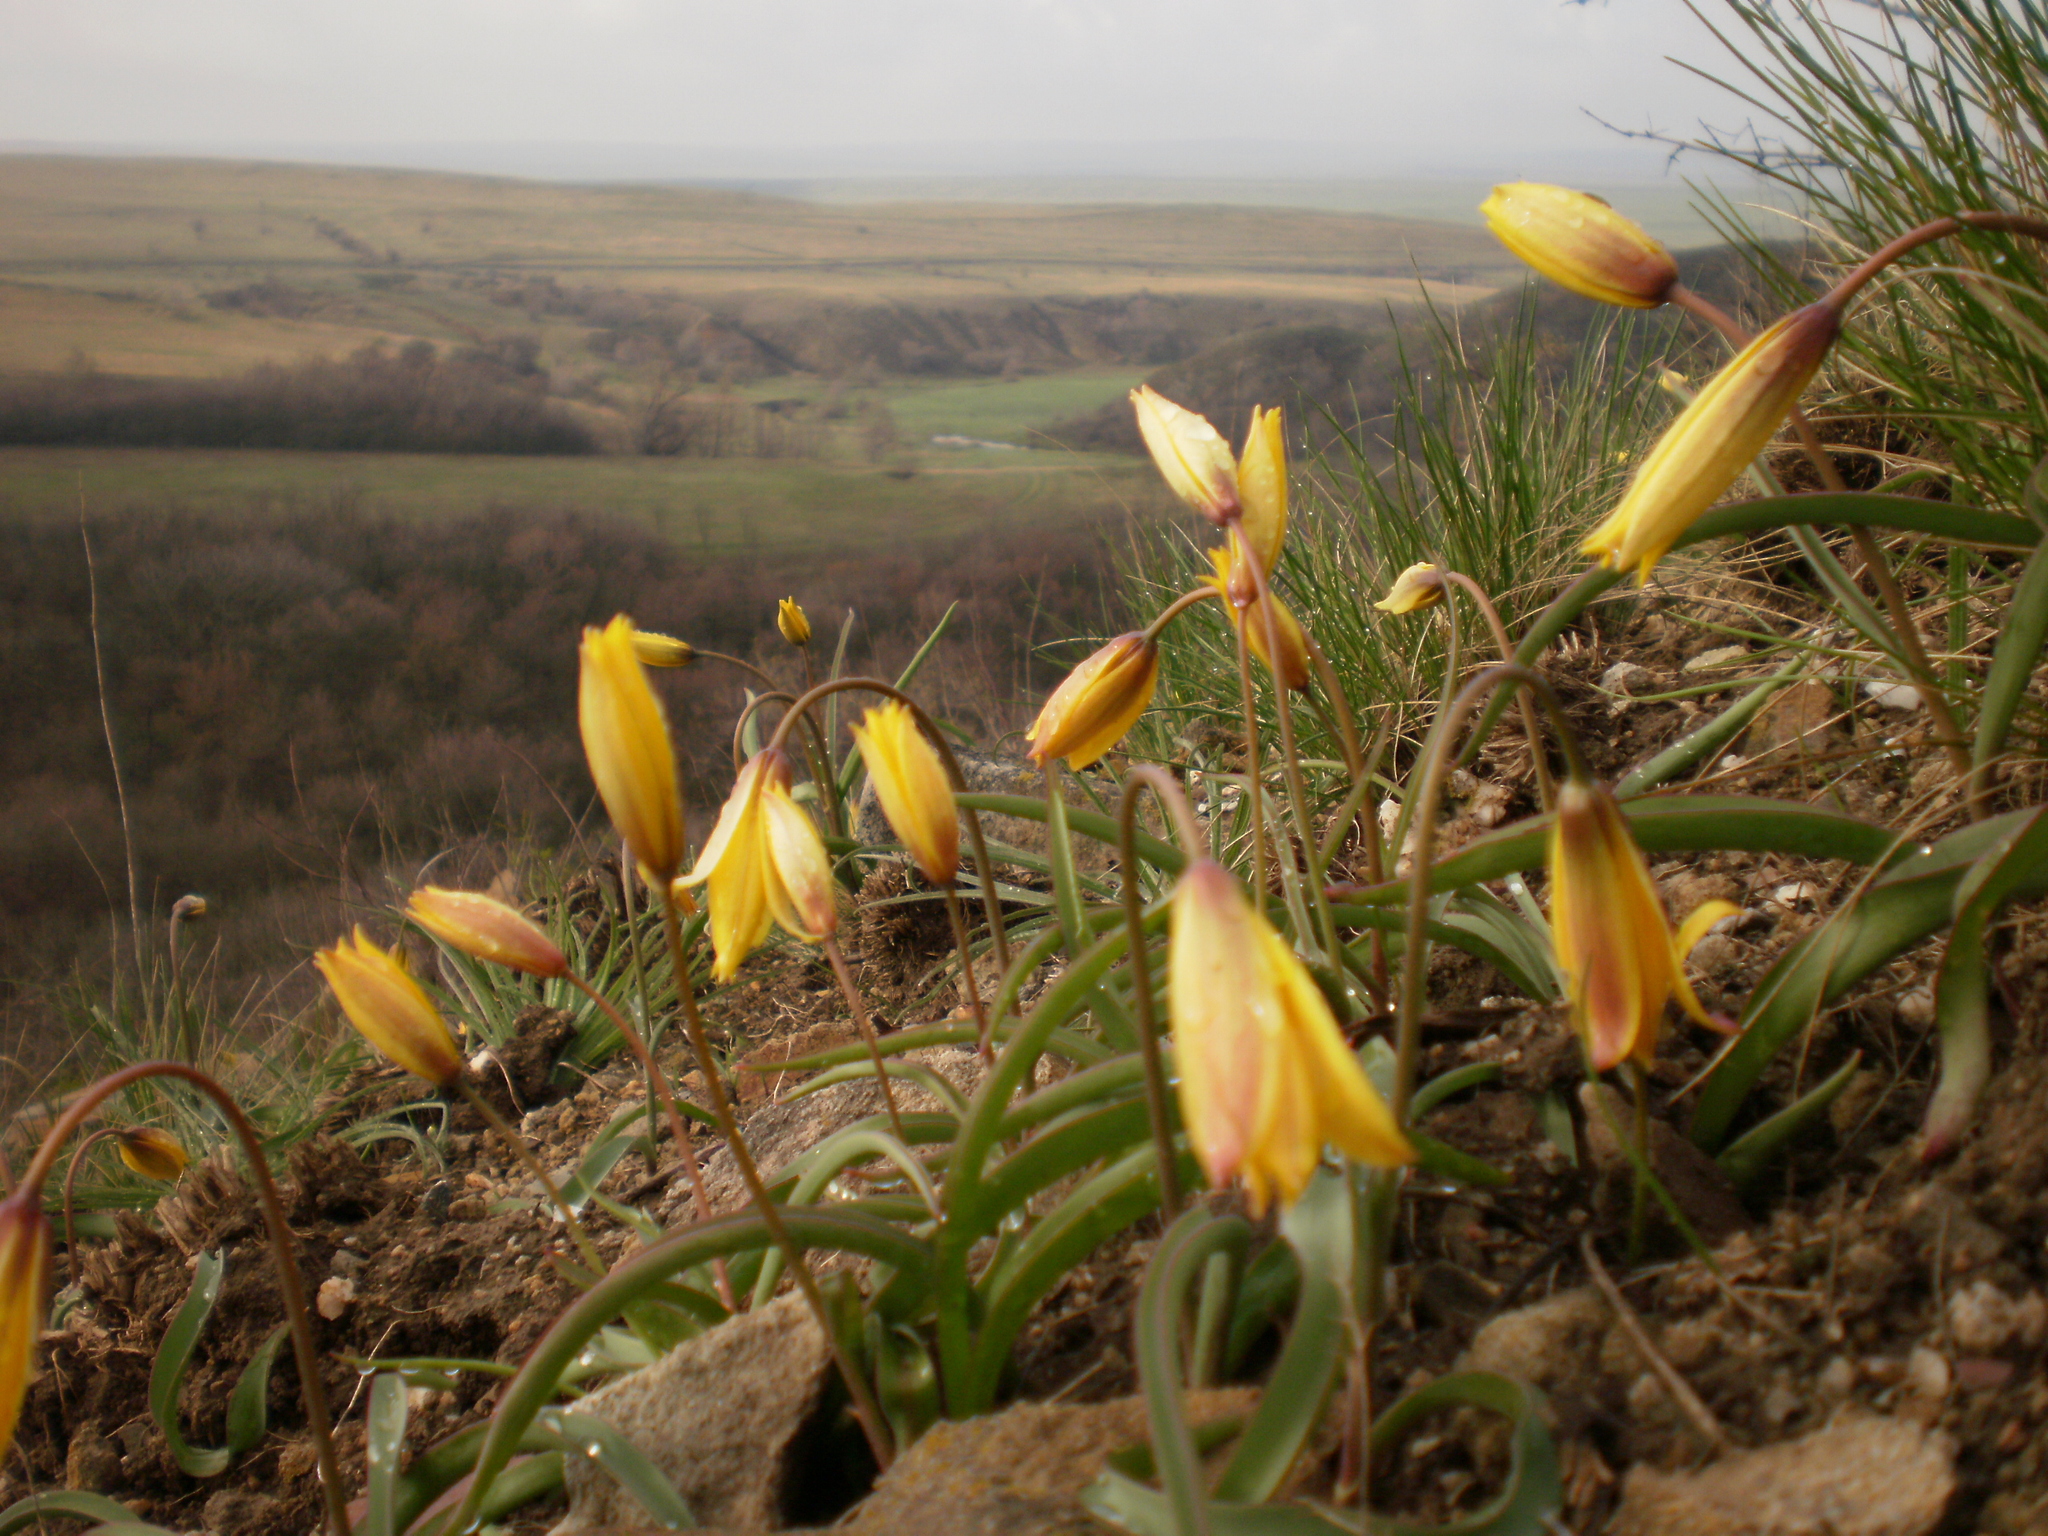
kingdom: Plantae
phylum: Tracheophyta
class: Liliopsida
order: Liliales
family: Liliaceae
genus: Tulipa
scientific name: Tulipa sylvestris
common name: Wild tulip
